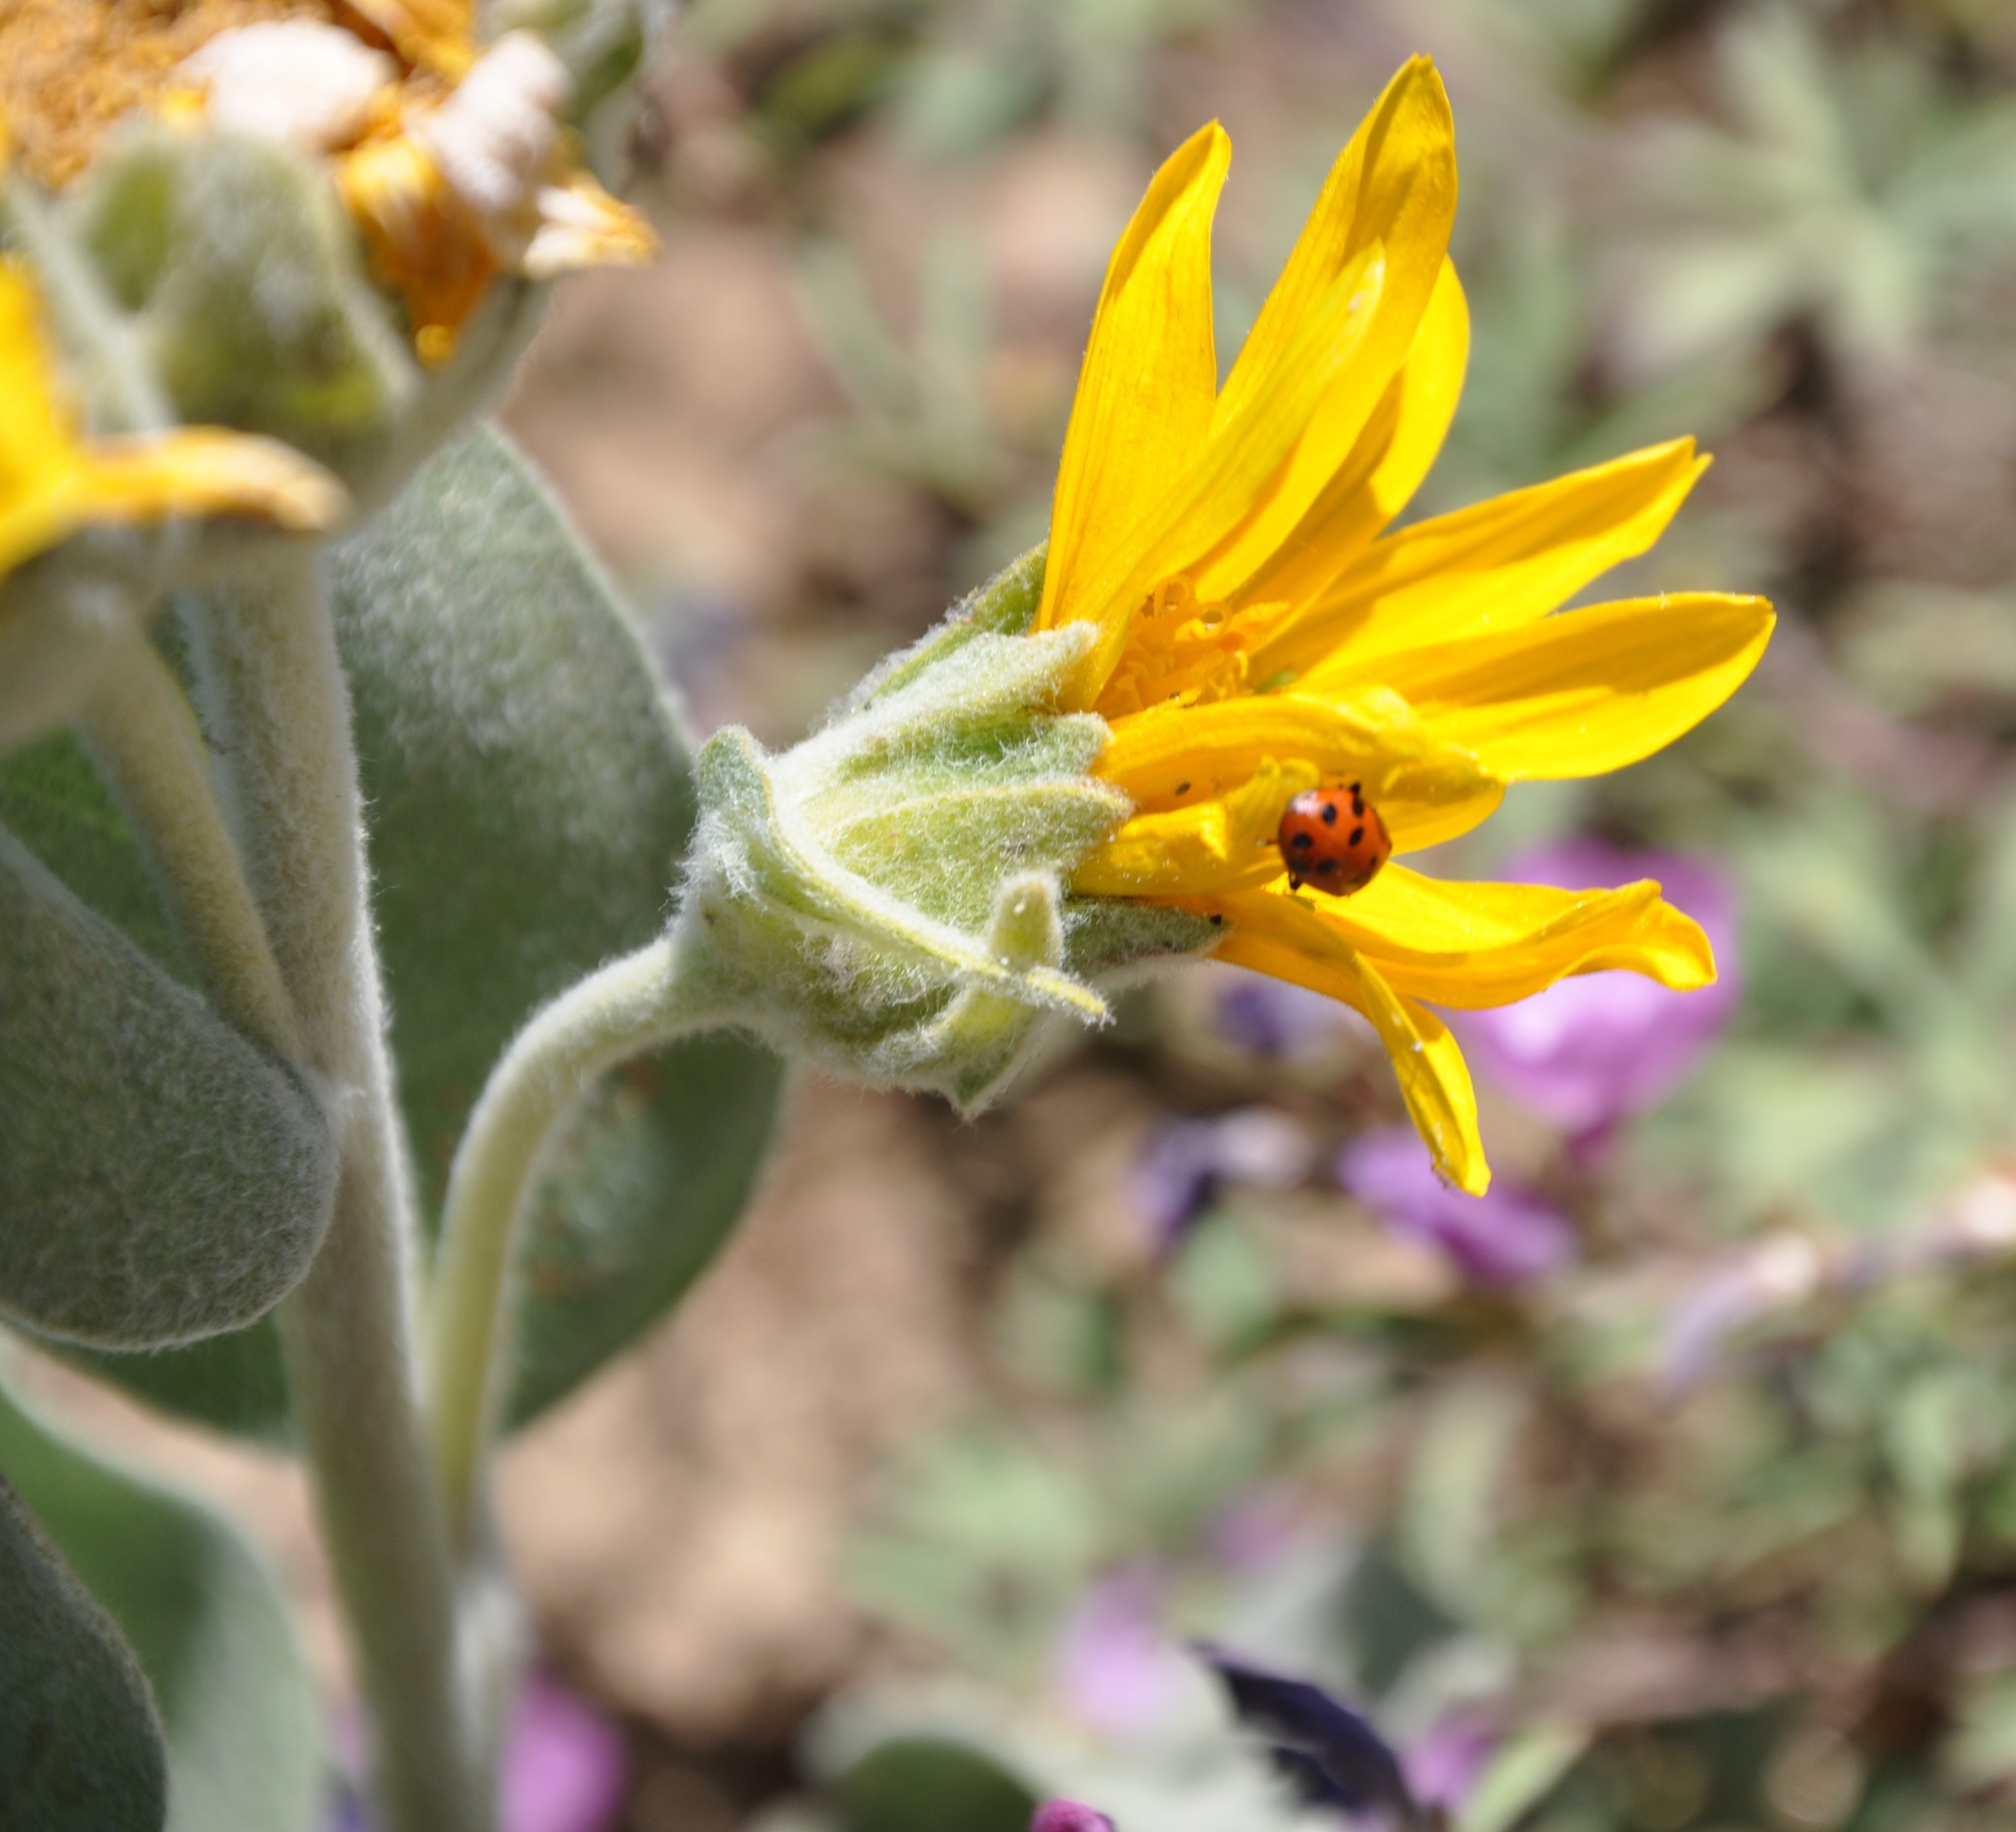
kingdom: Plantae
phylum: Tracheophyta
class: Magnoliopsida
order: Asterales
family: Asteraceae
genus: Wyethia
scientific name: Wyethia mollis
